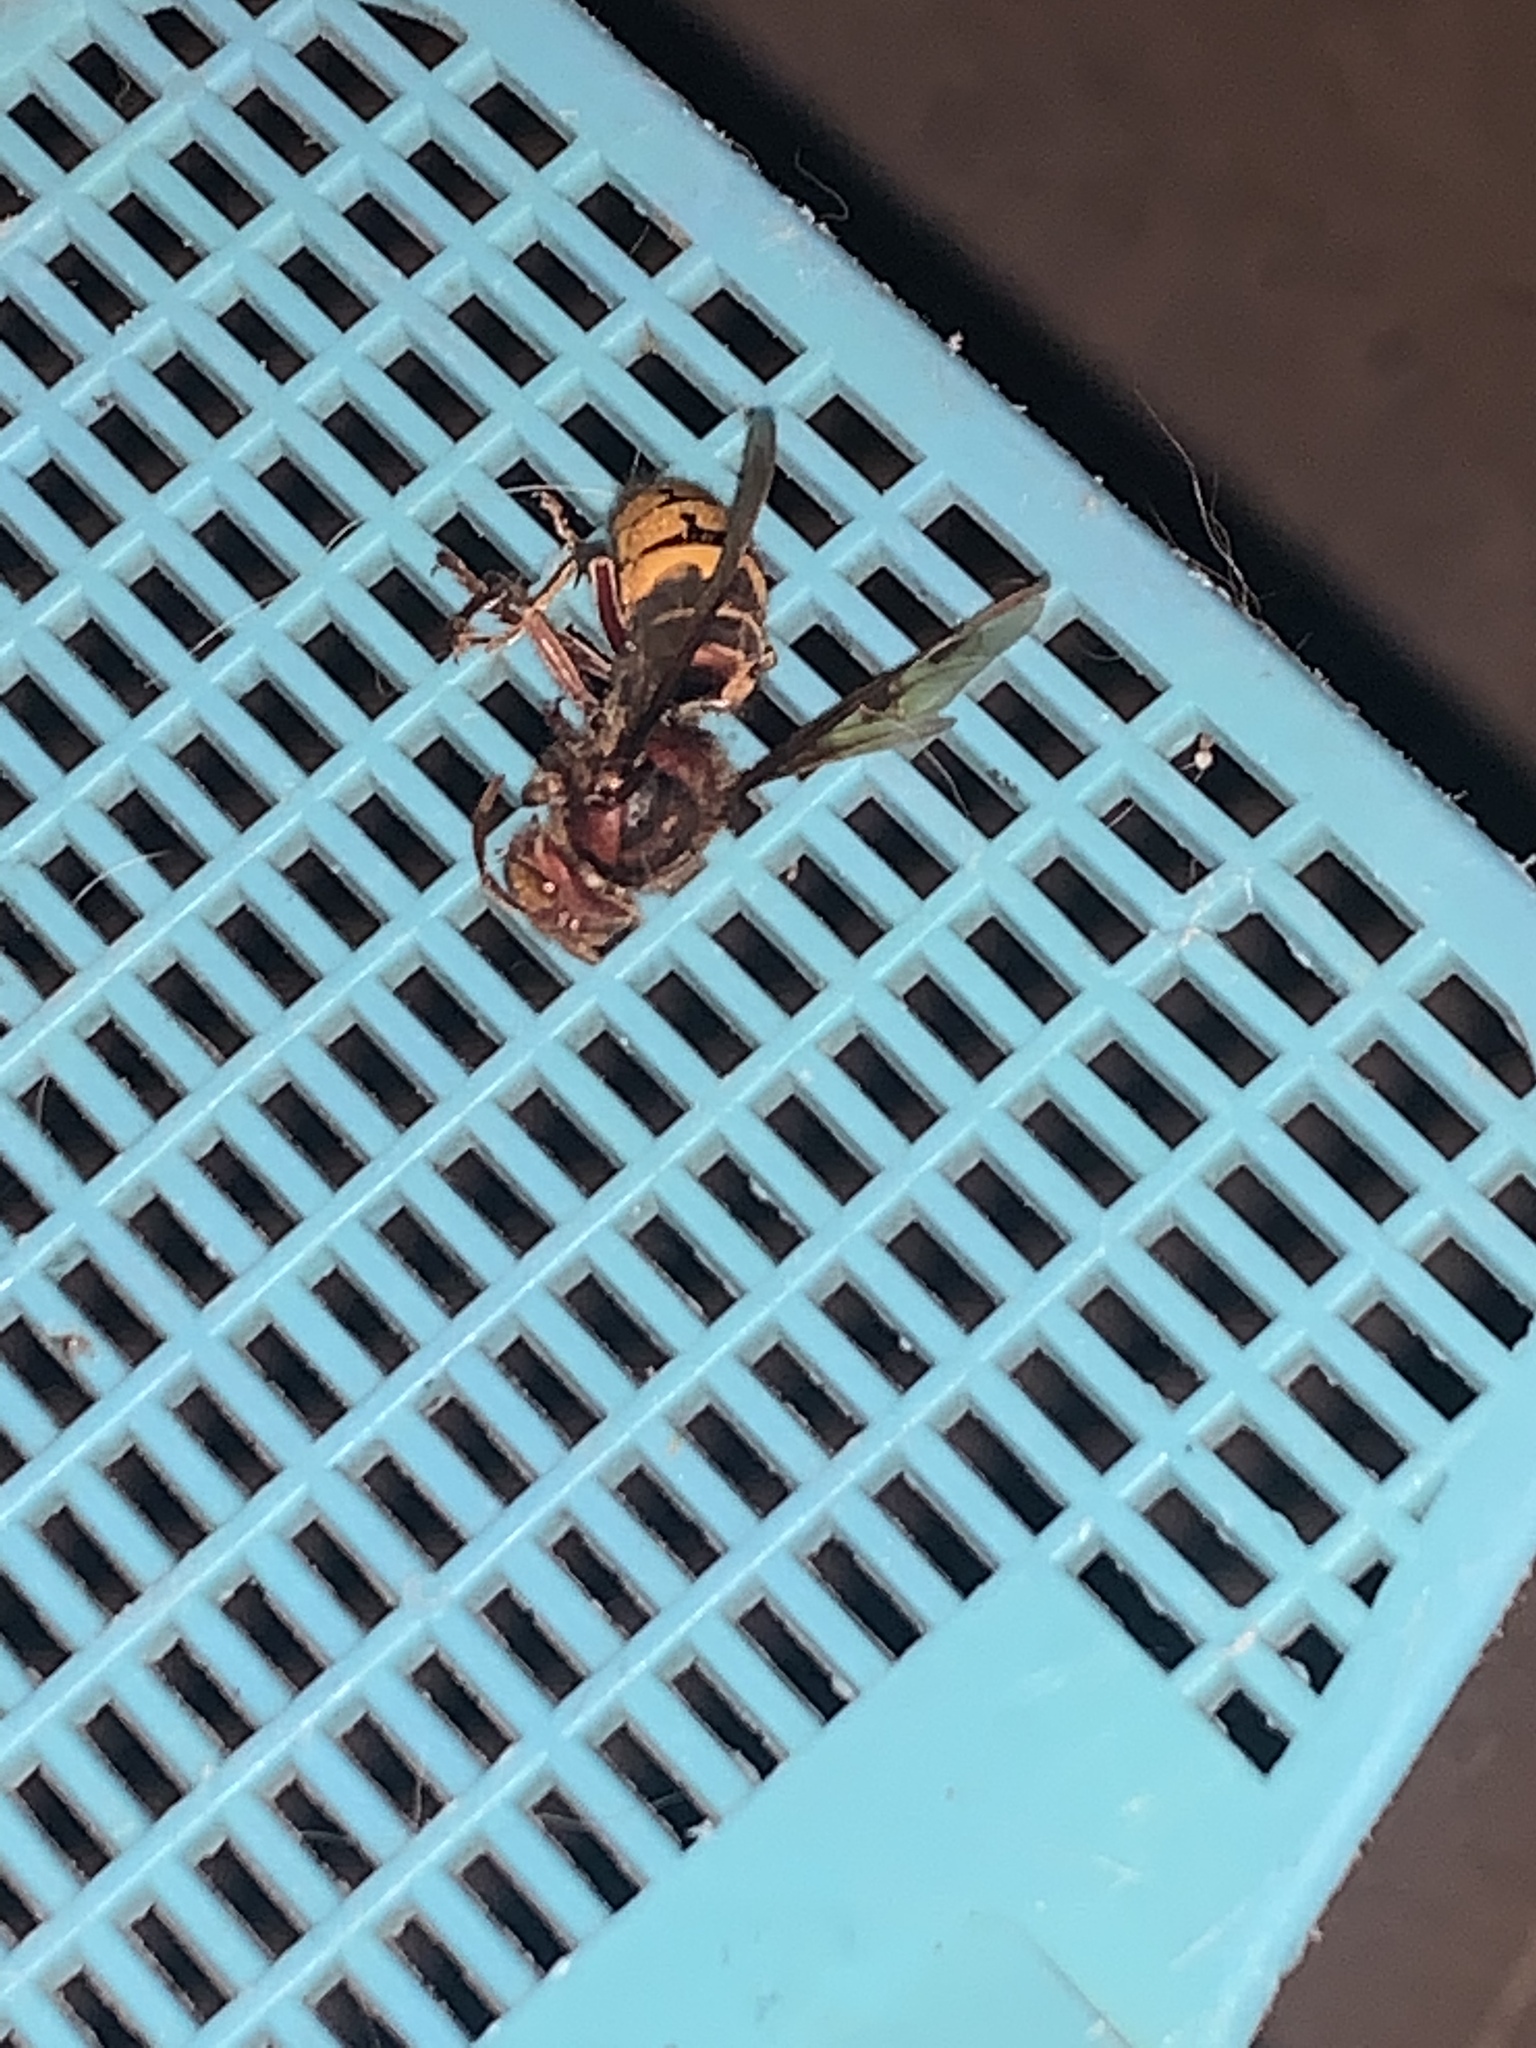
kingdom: Animalia
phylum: Arthropoda
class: Insecta
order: Hymenoptera
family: Vespidae
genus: Vespa
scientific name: Vespa crabro
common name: Hornet
